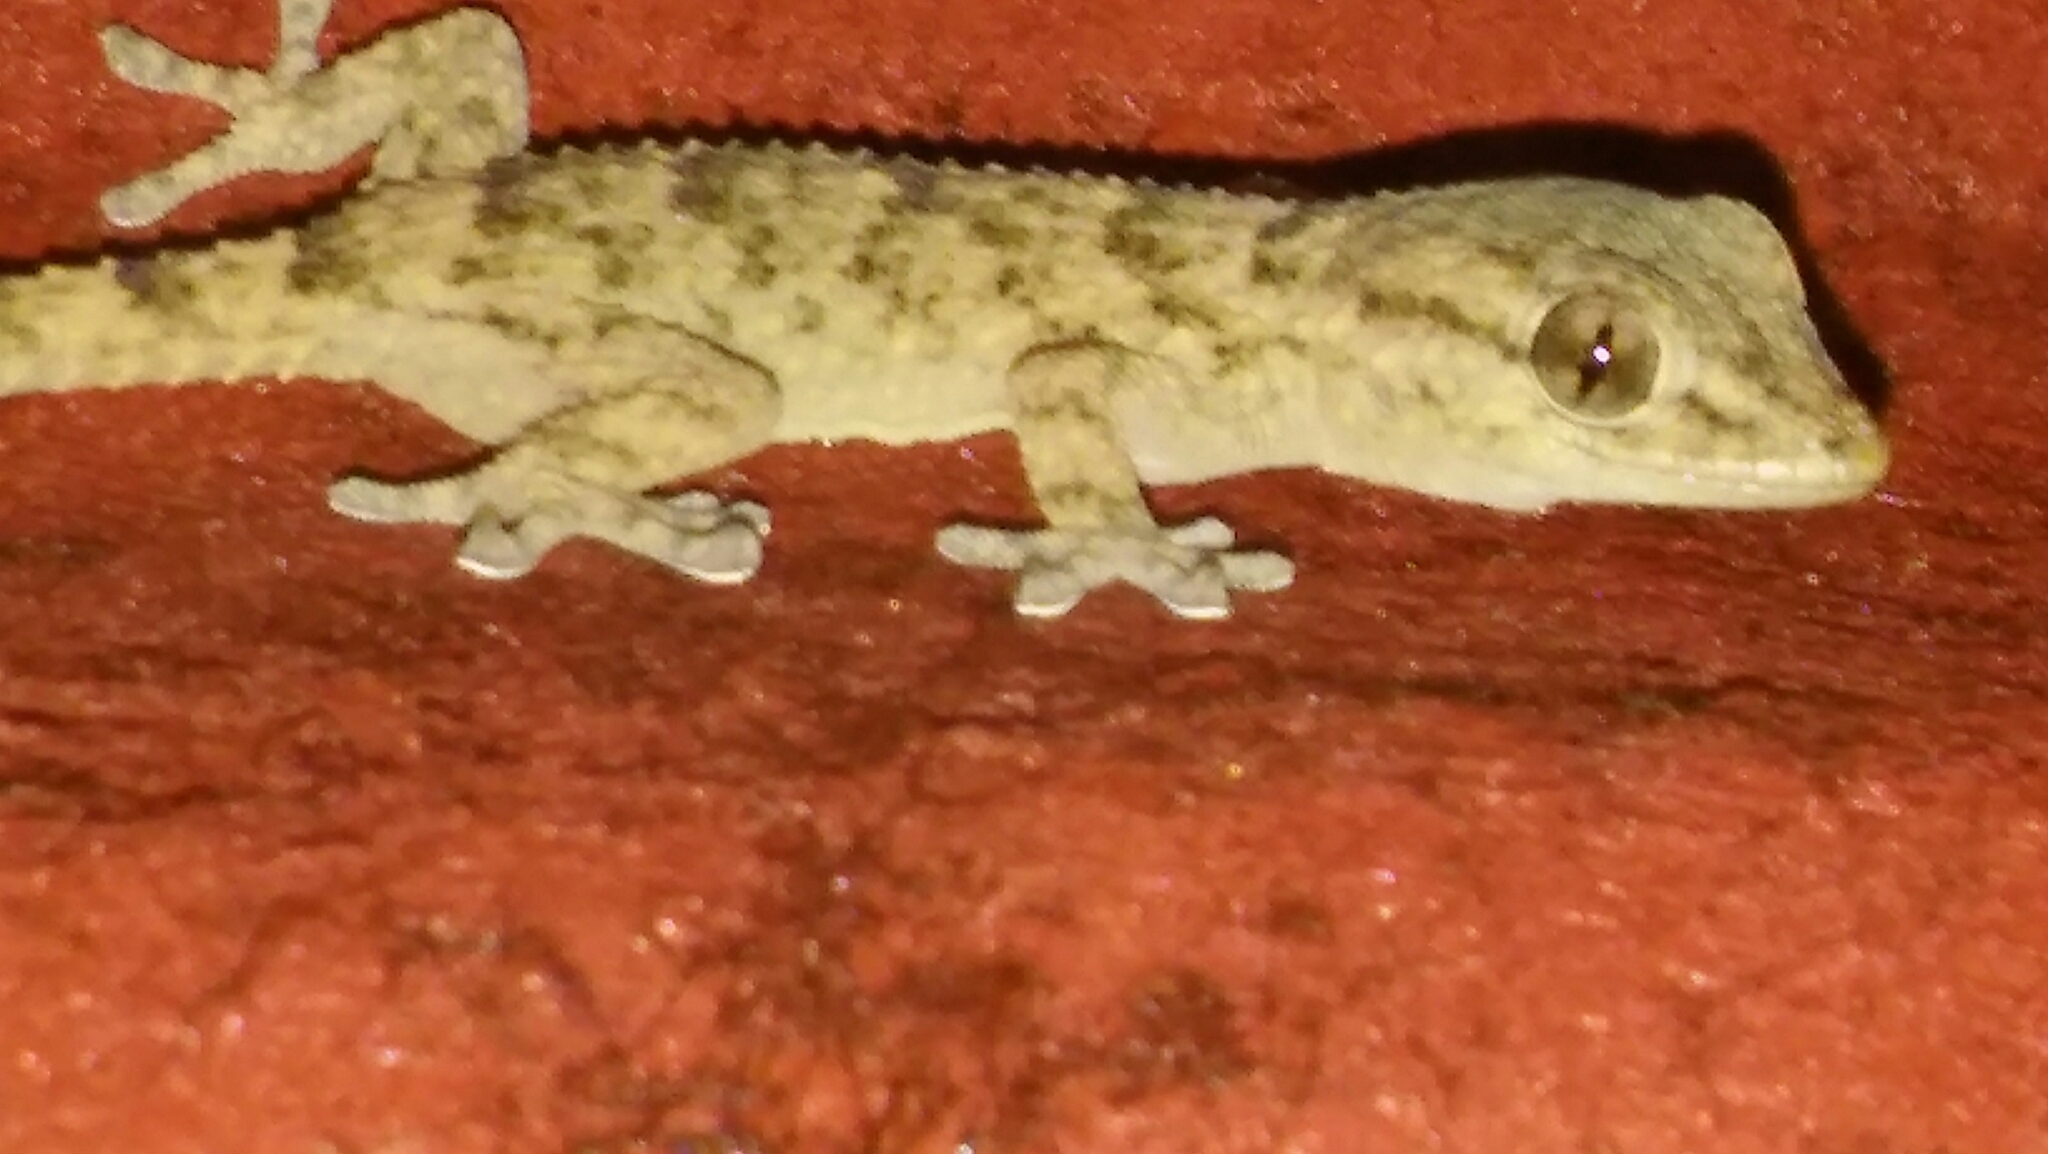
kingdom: Animalia
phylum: Chordata
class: Squamata
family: Phyllodactylidae
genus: Tarentola
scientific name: Tarentola mauritanica
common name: Moorish gecko
